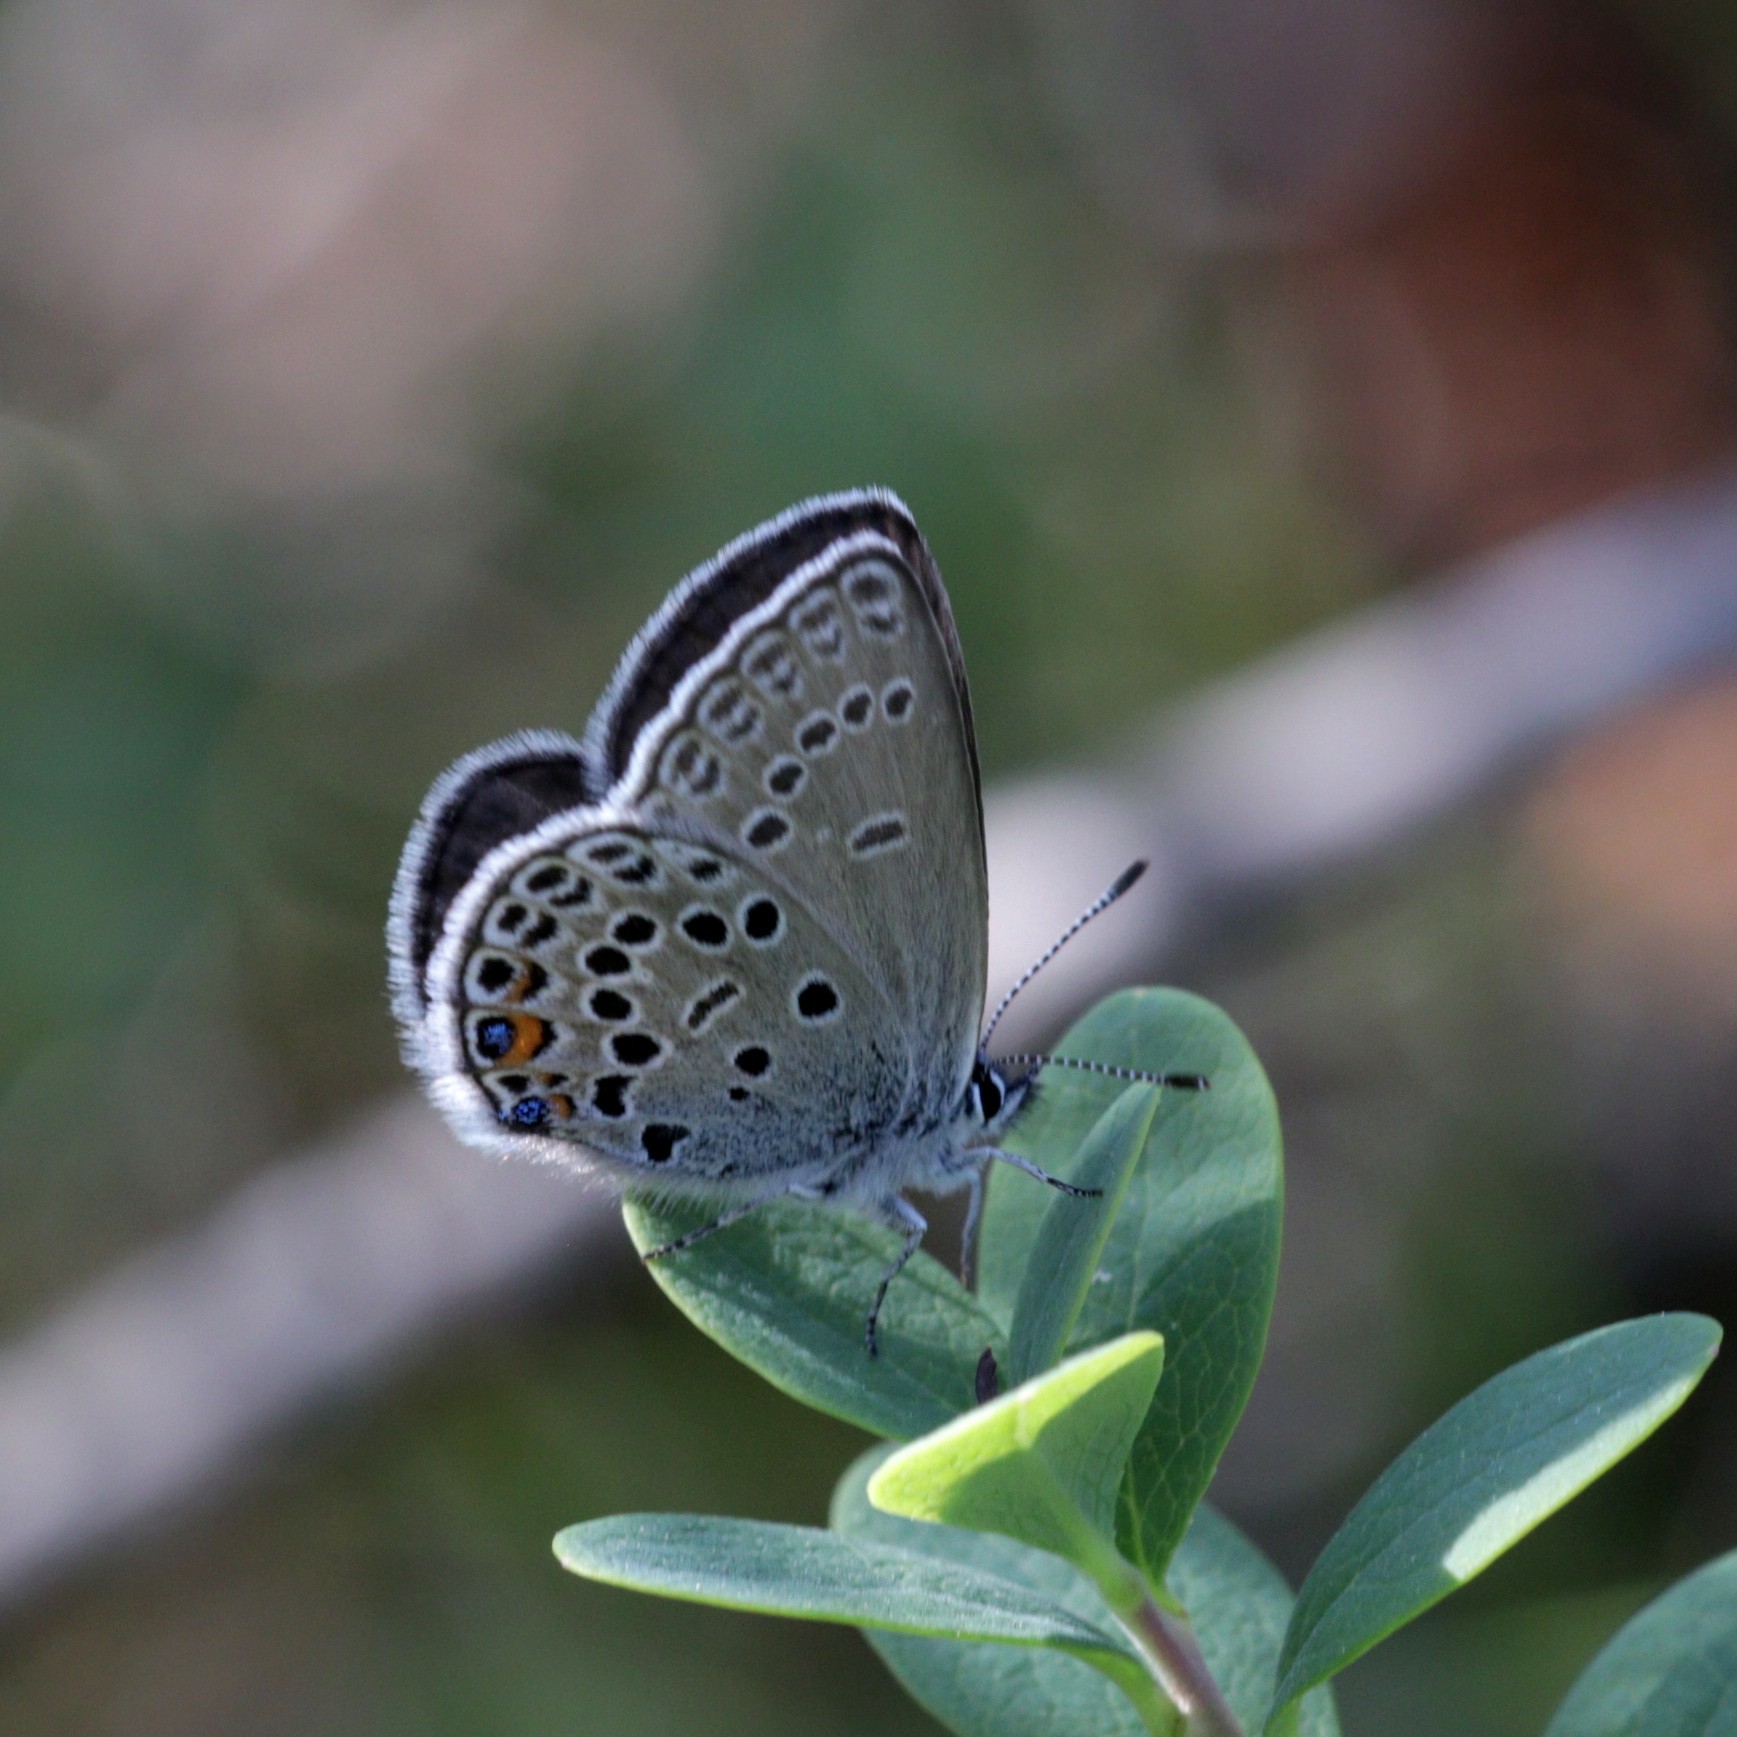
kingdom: Animalia
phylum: Arthropoda
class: Insecta
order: Lepidoptera
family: Lycaenidae
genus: Vacciniina
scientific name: Vacciniina optilete
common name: Cranberry blue
